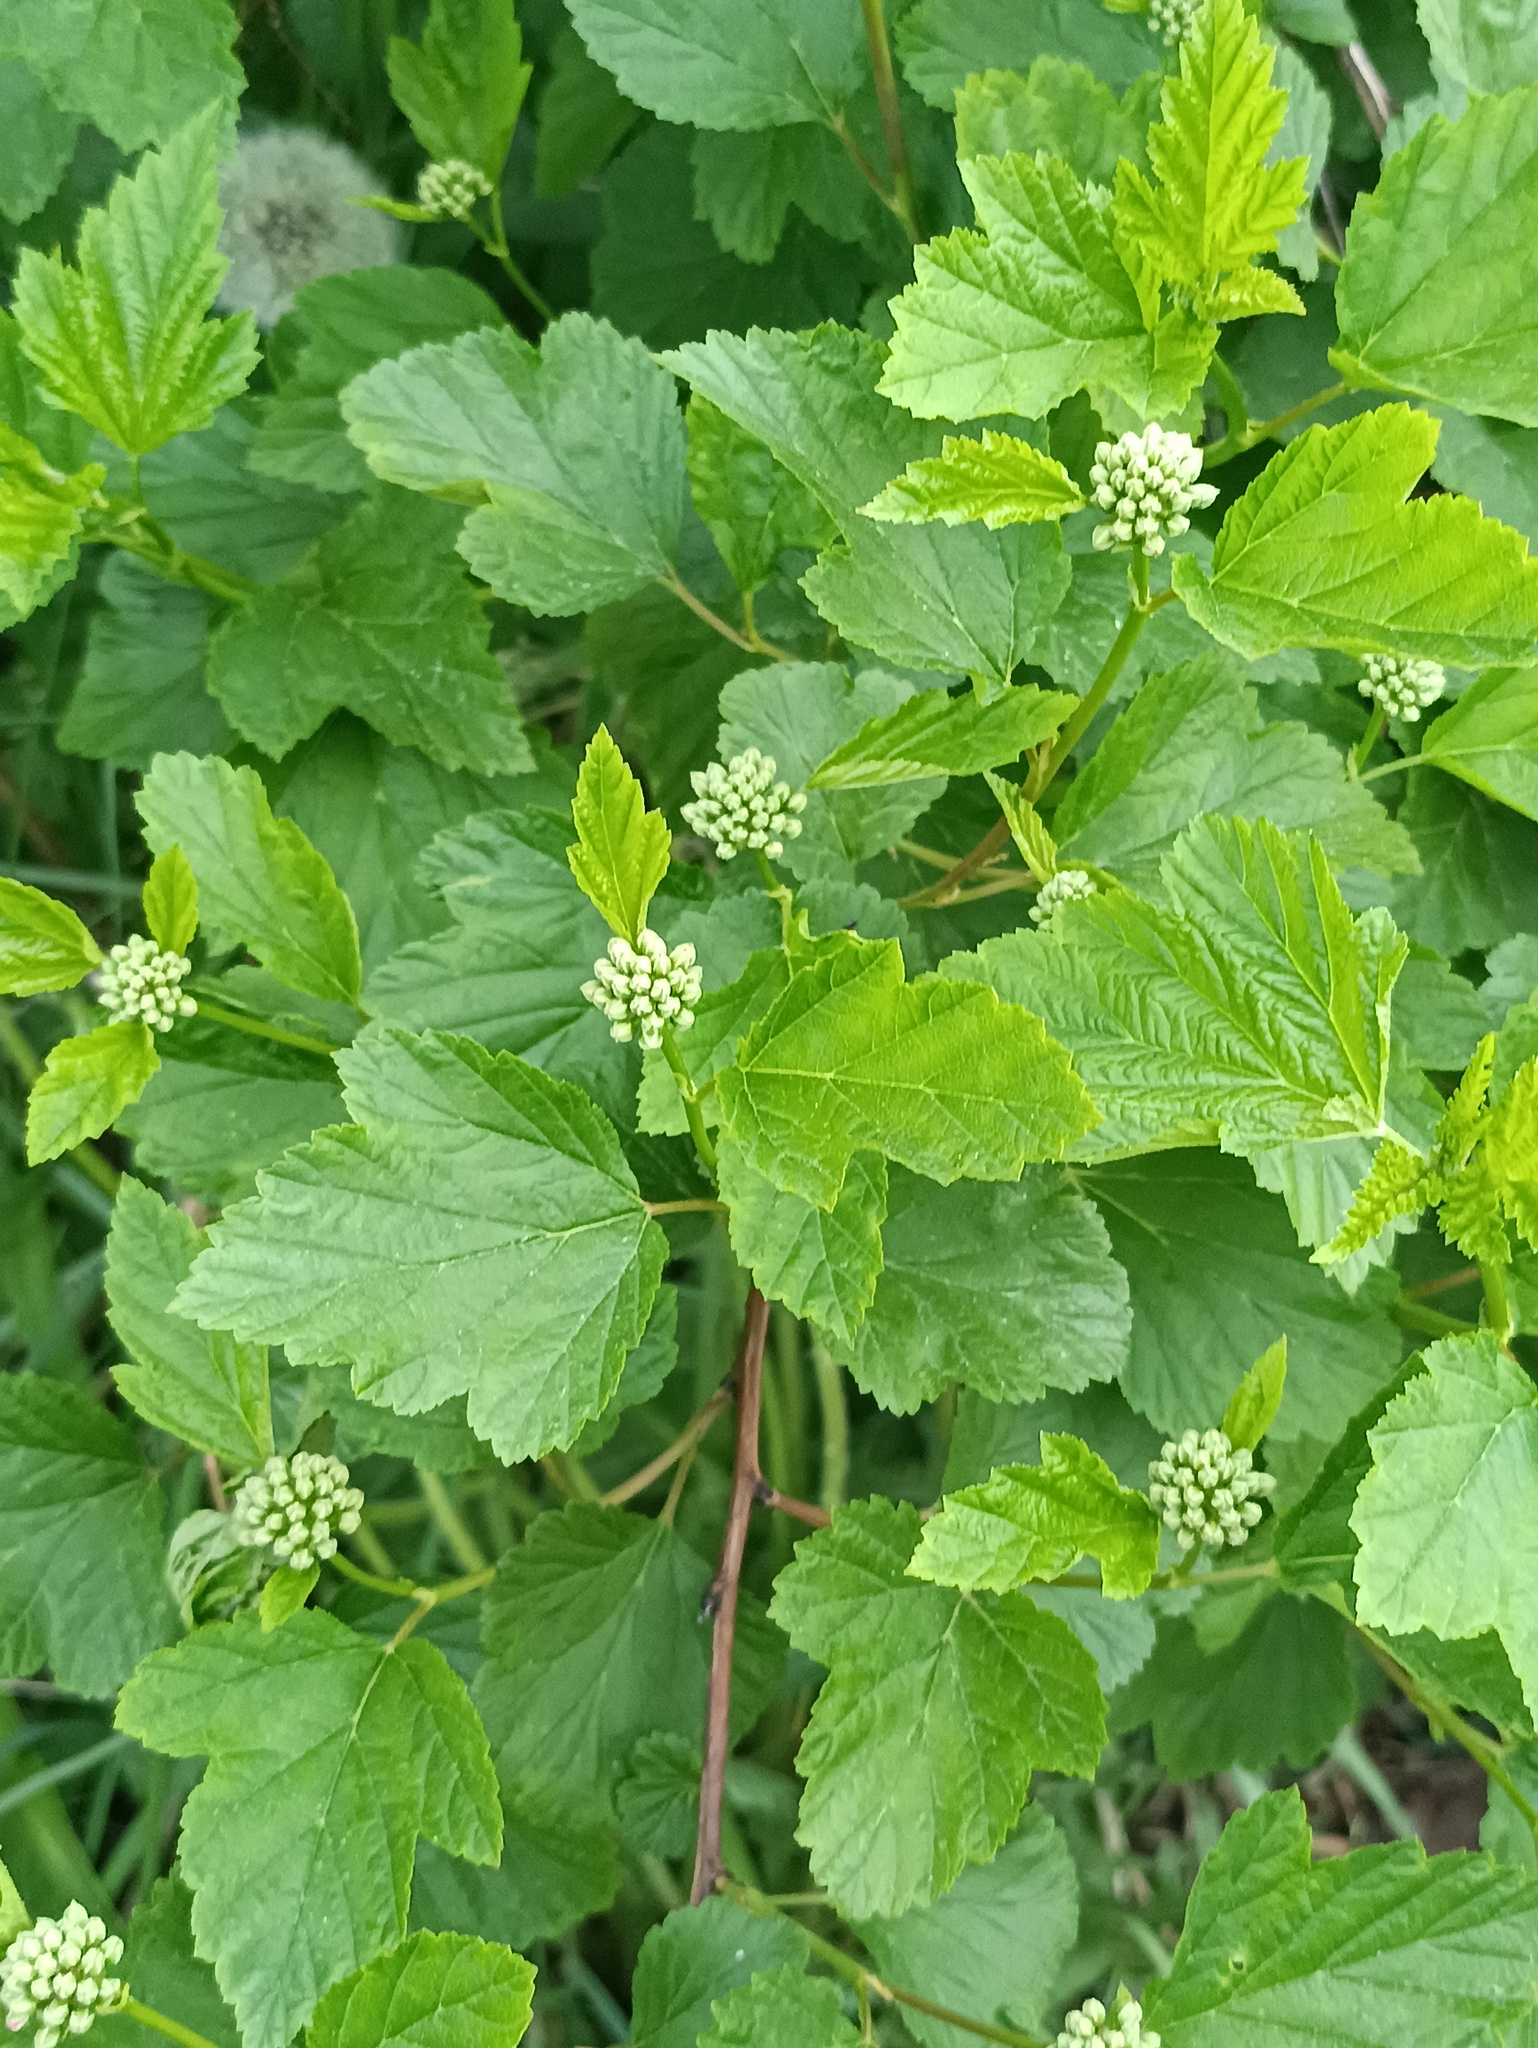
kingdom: Plantae
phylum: Tracheophyta
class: Magnoliopsida
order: Rosales
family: Rosaceae
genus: Physocarpus
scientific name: Physocarpus opulifolius
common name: Ninebark
